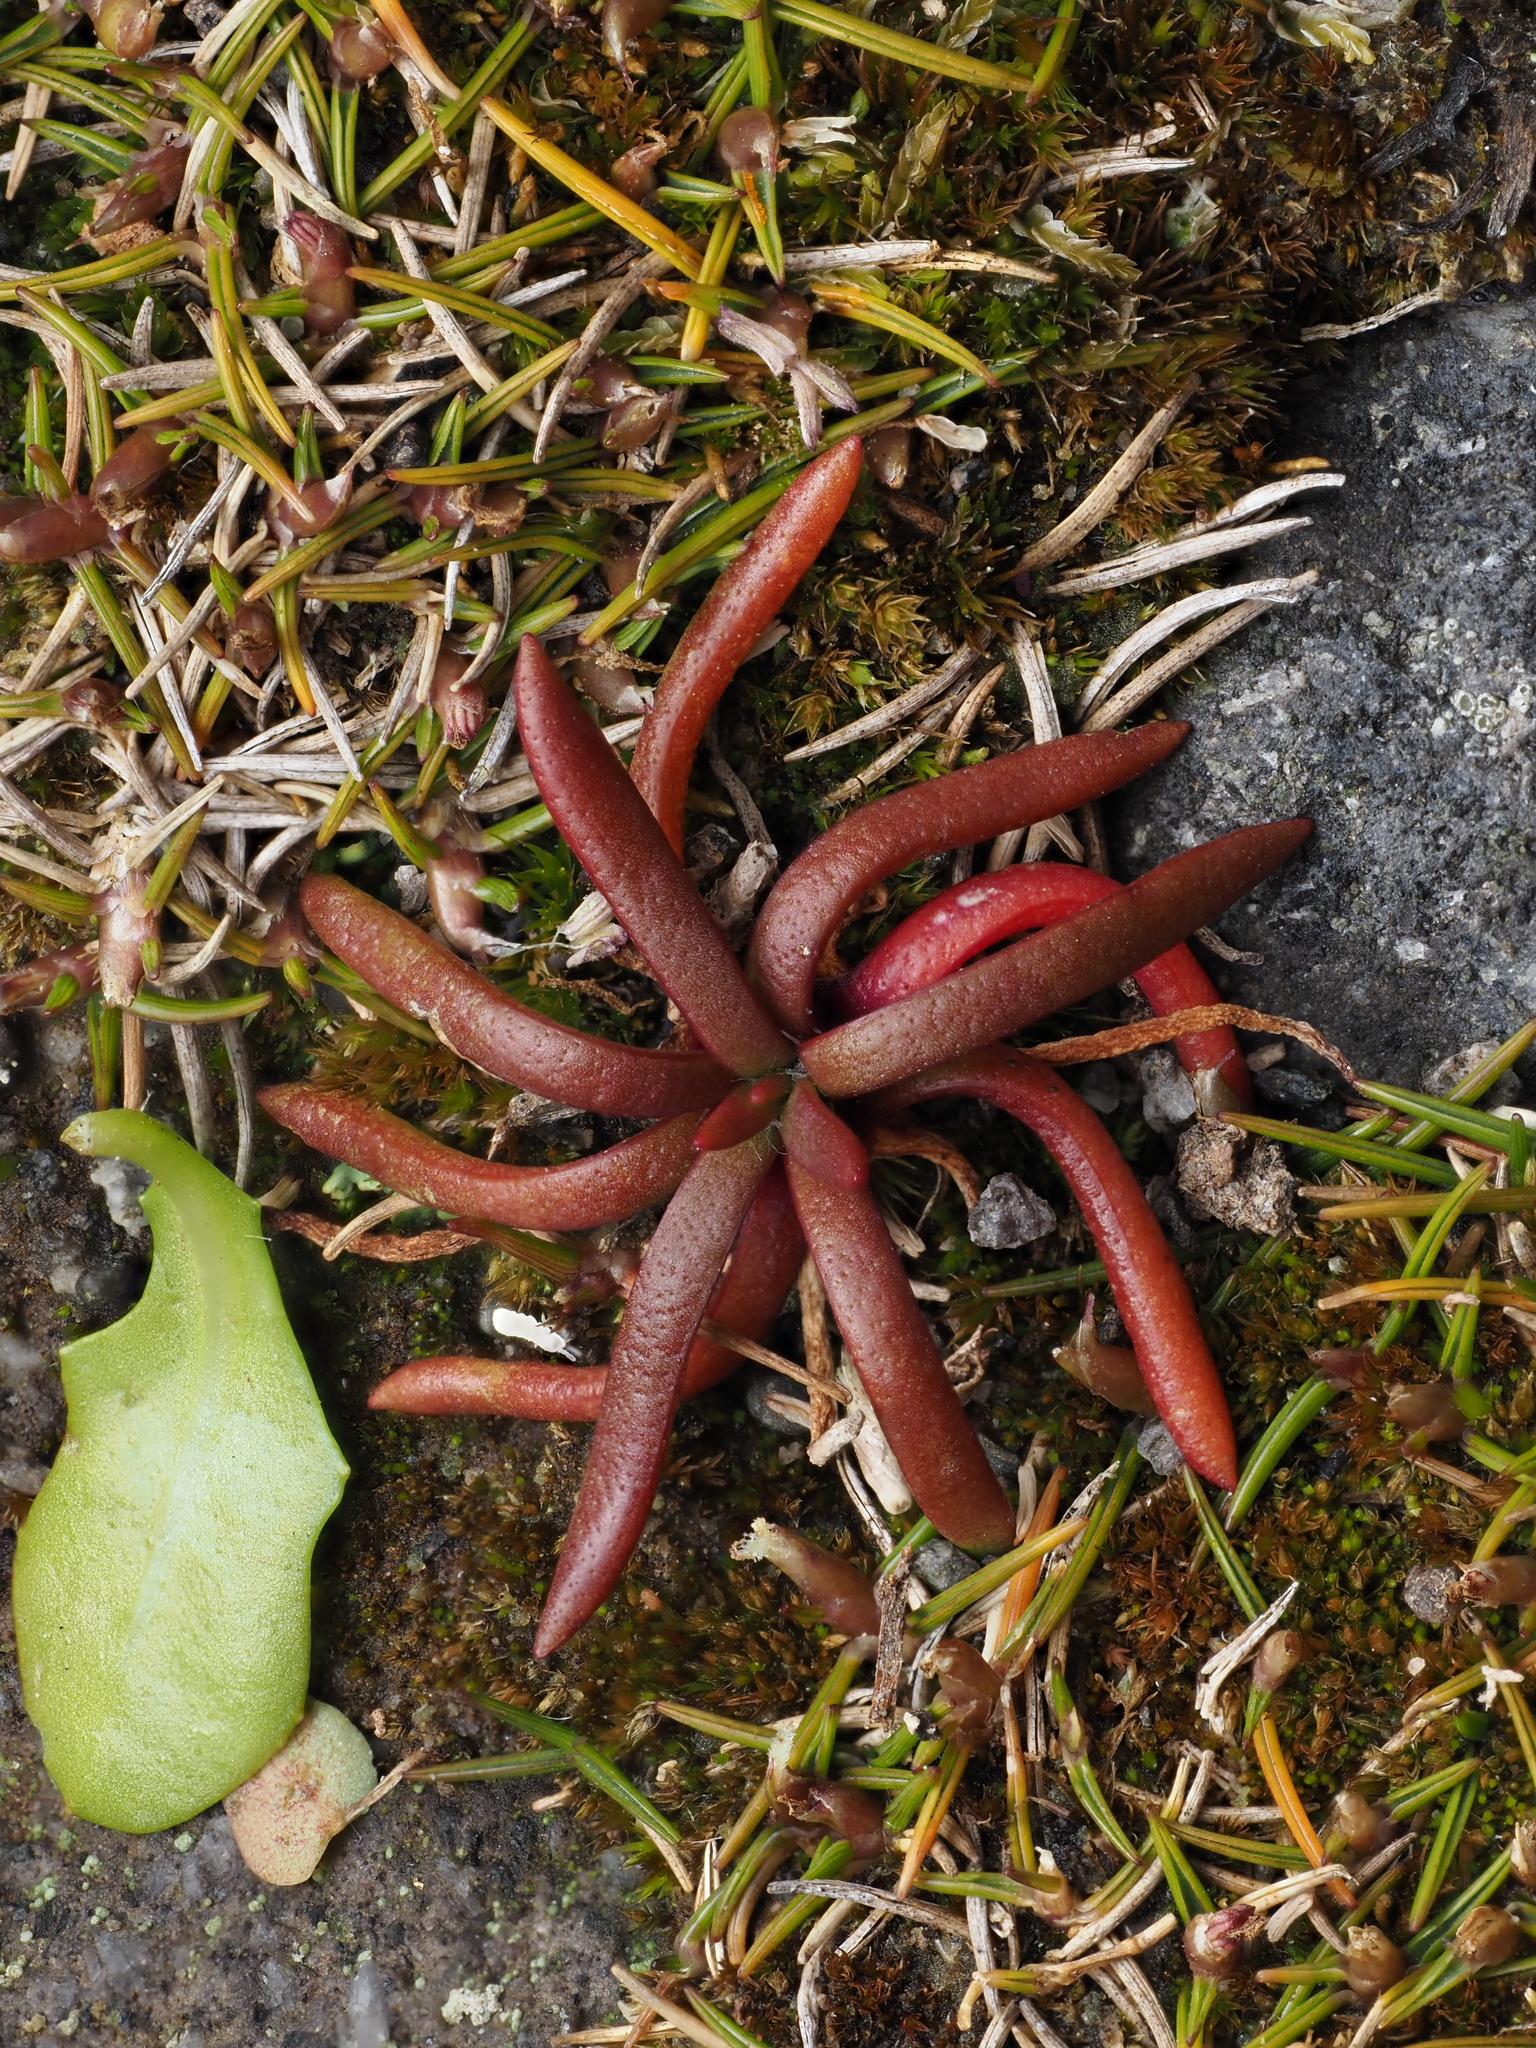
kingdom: Plantae
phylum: Tracheophyta
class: Magnoliopsida
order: Lamiales
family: Plantaginaceae
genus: Plantago
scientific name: Plantago coronopus
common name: Buck's-horn plantain
